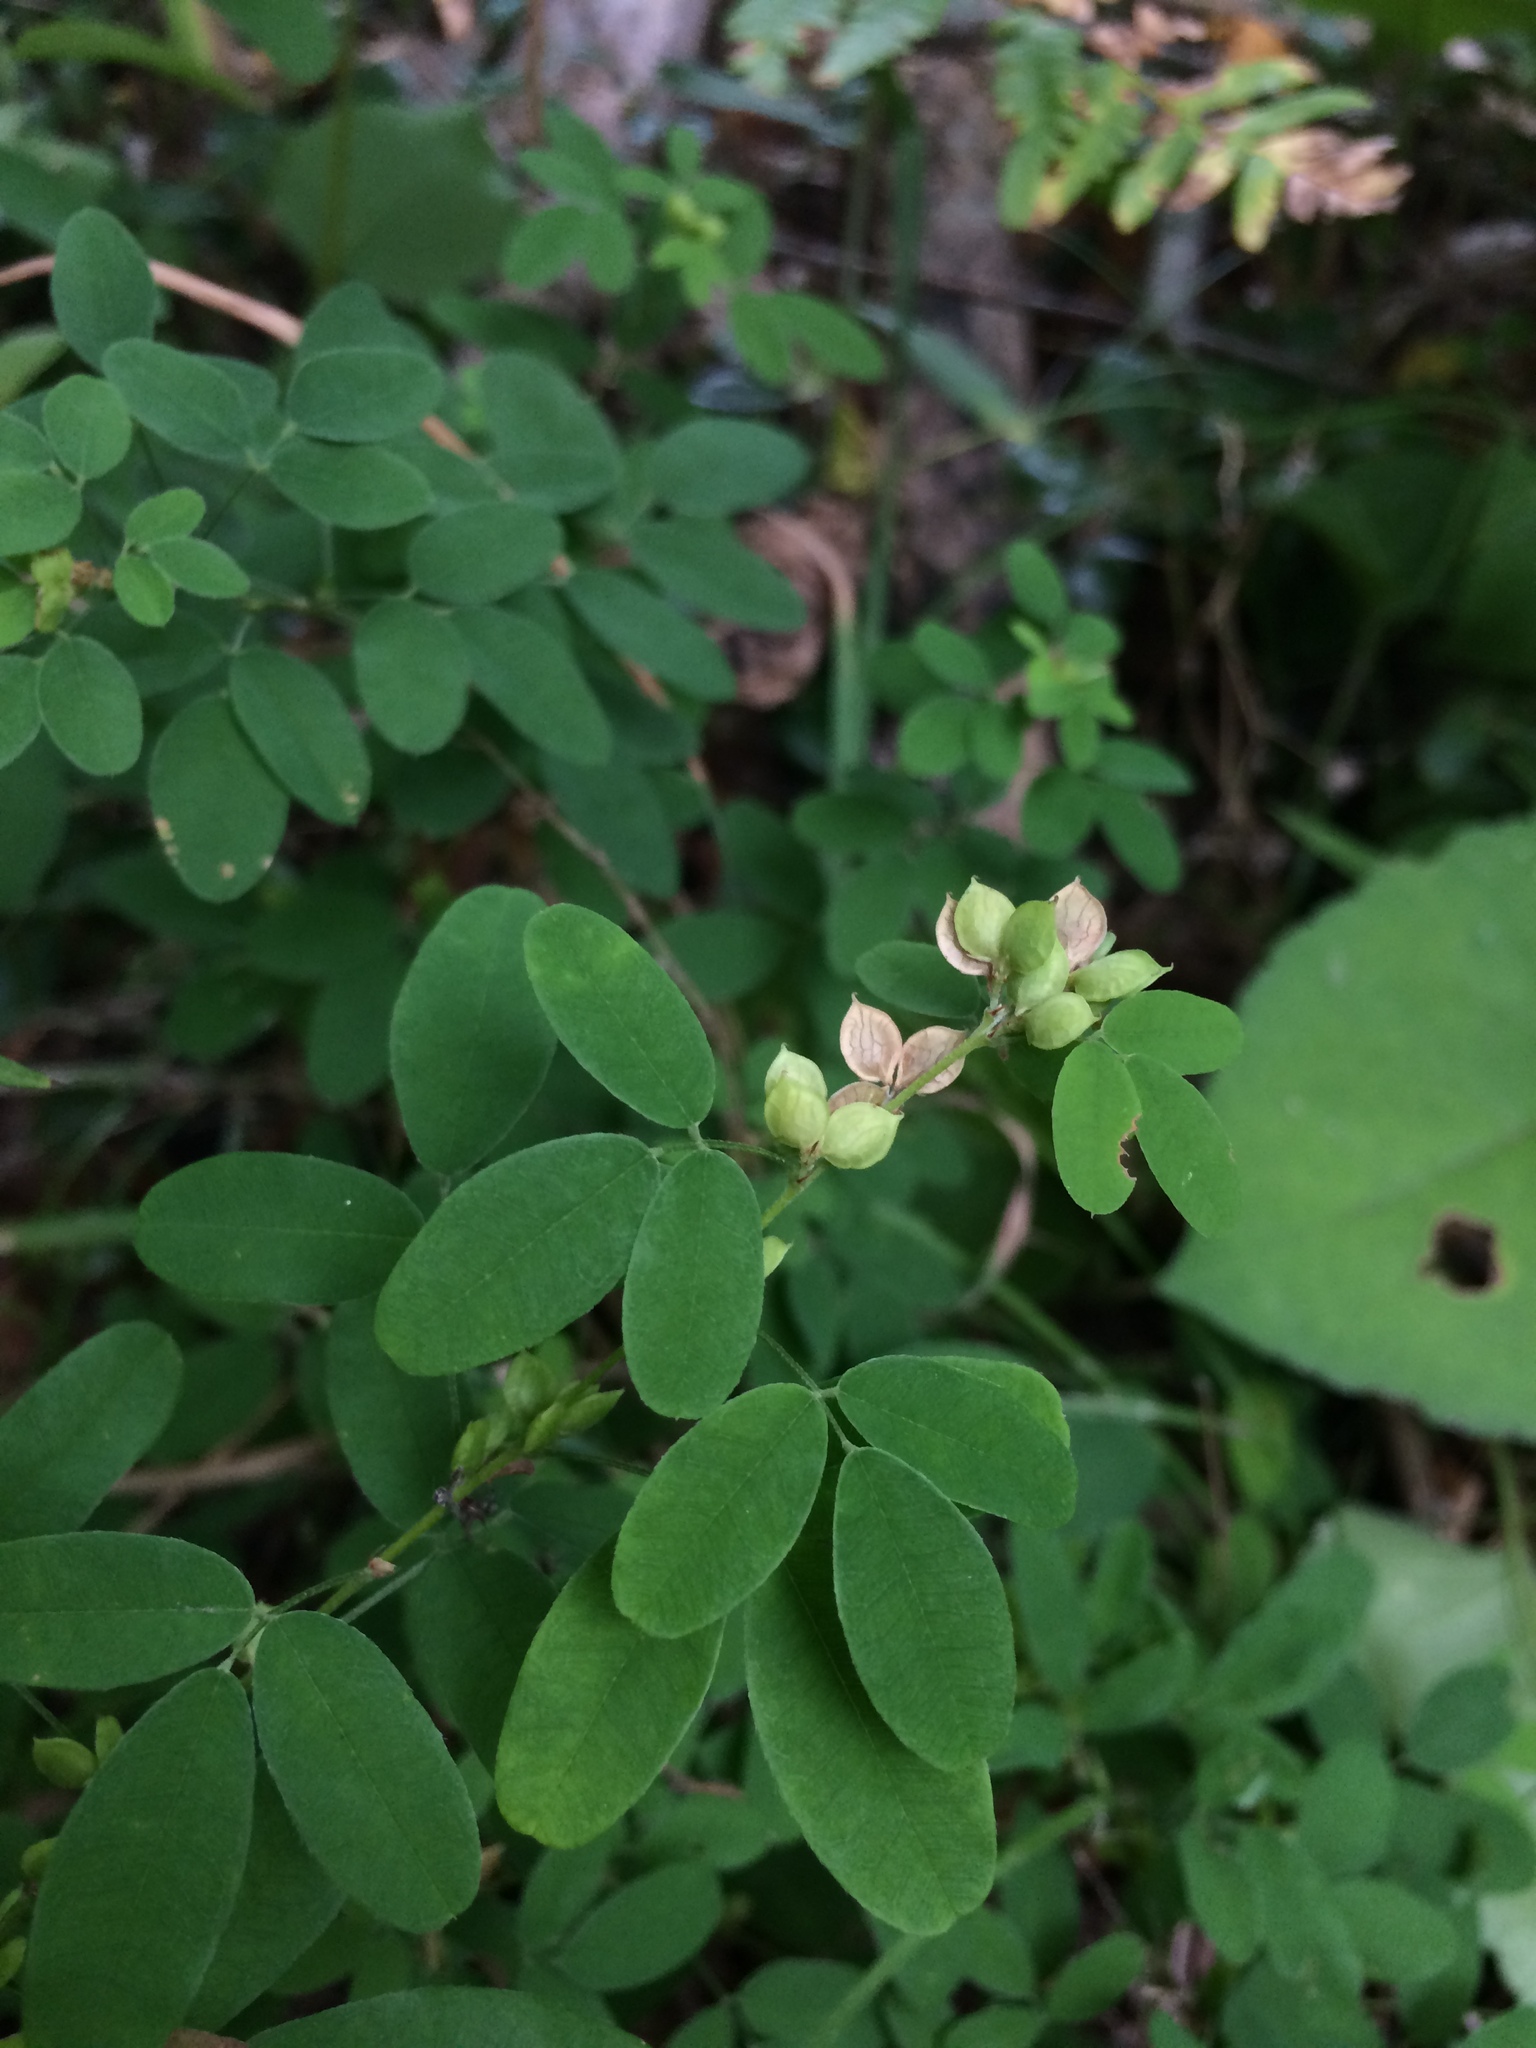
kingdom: Plantae
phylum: Tracheophyta
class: Magnoliopsida
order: Fabales
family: Fabaceae
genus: Lespedeza
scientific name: Lespedeza violacea
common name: Wand bush-clover
